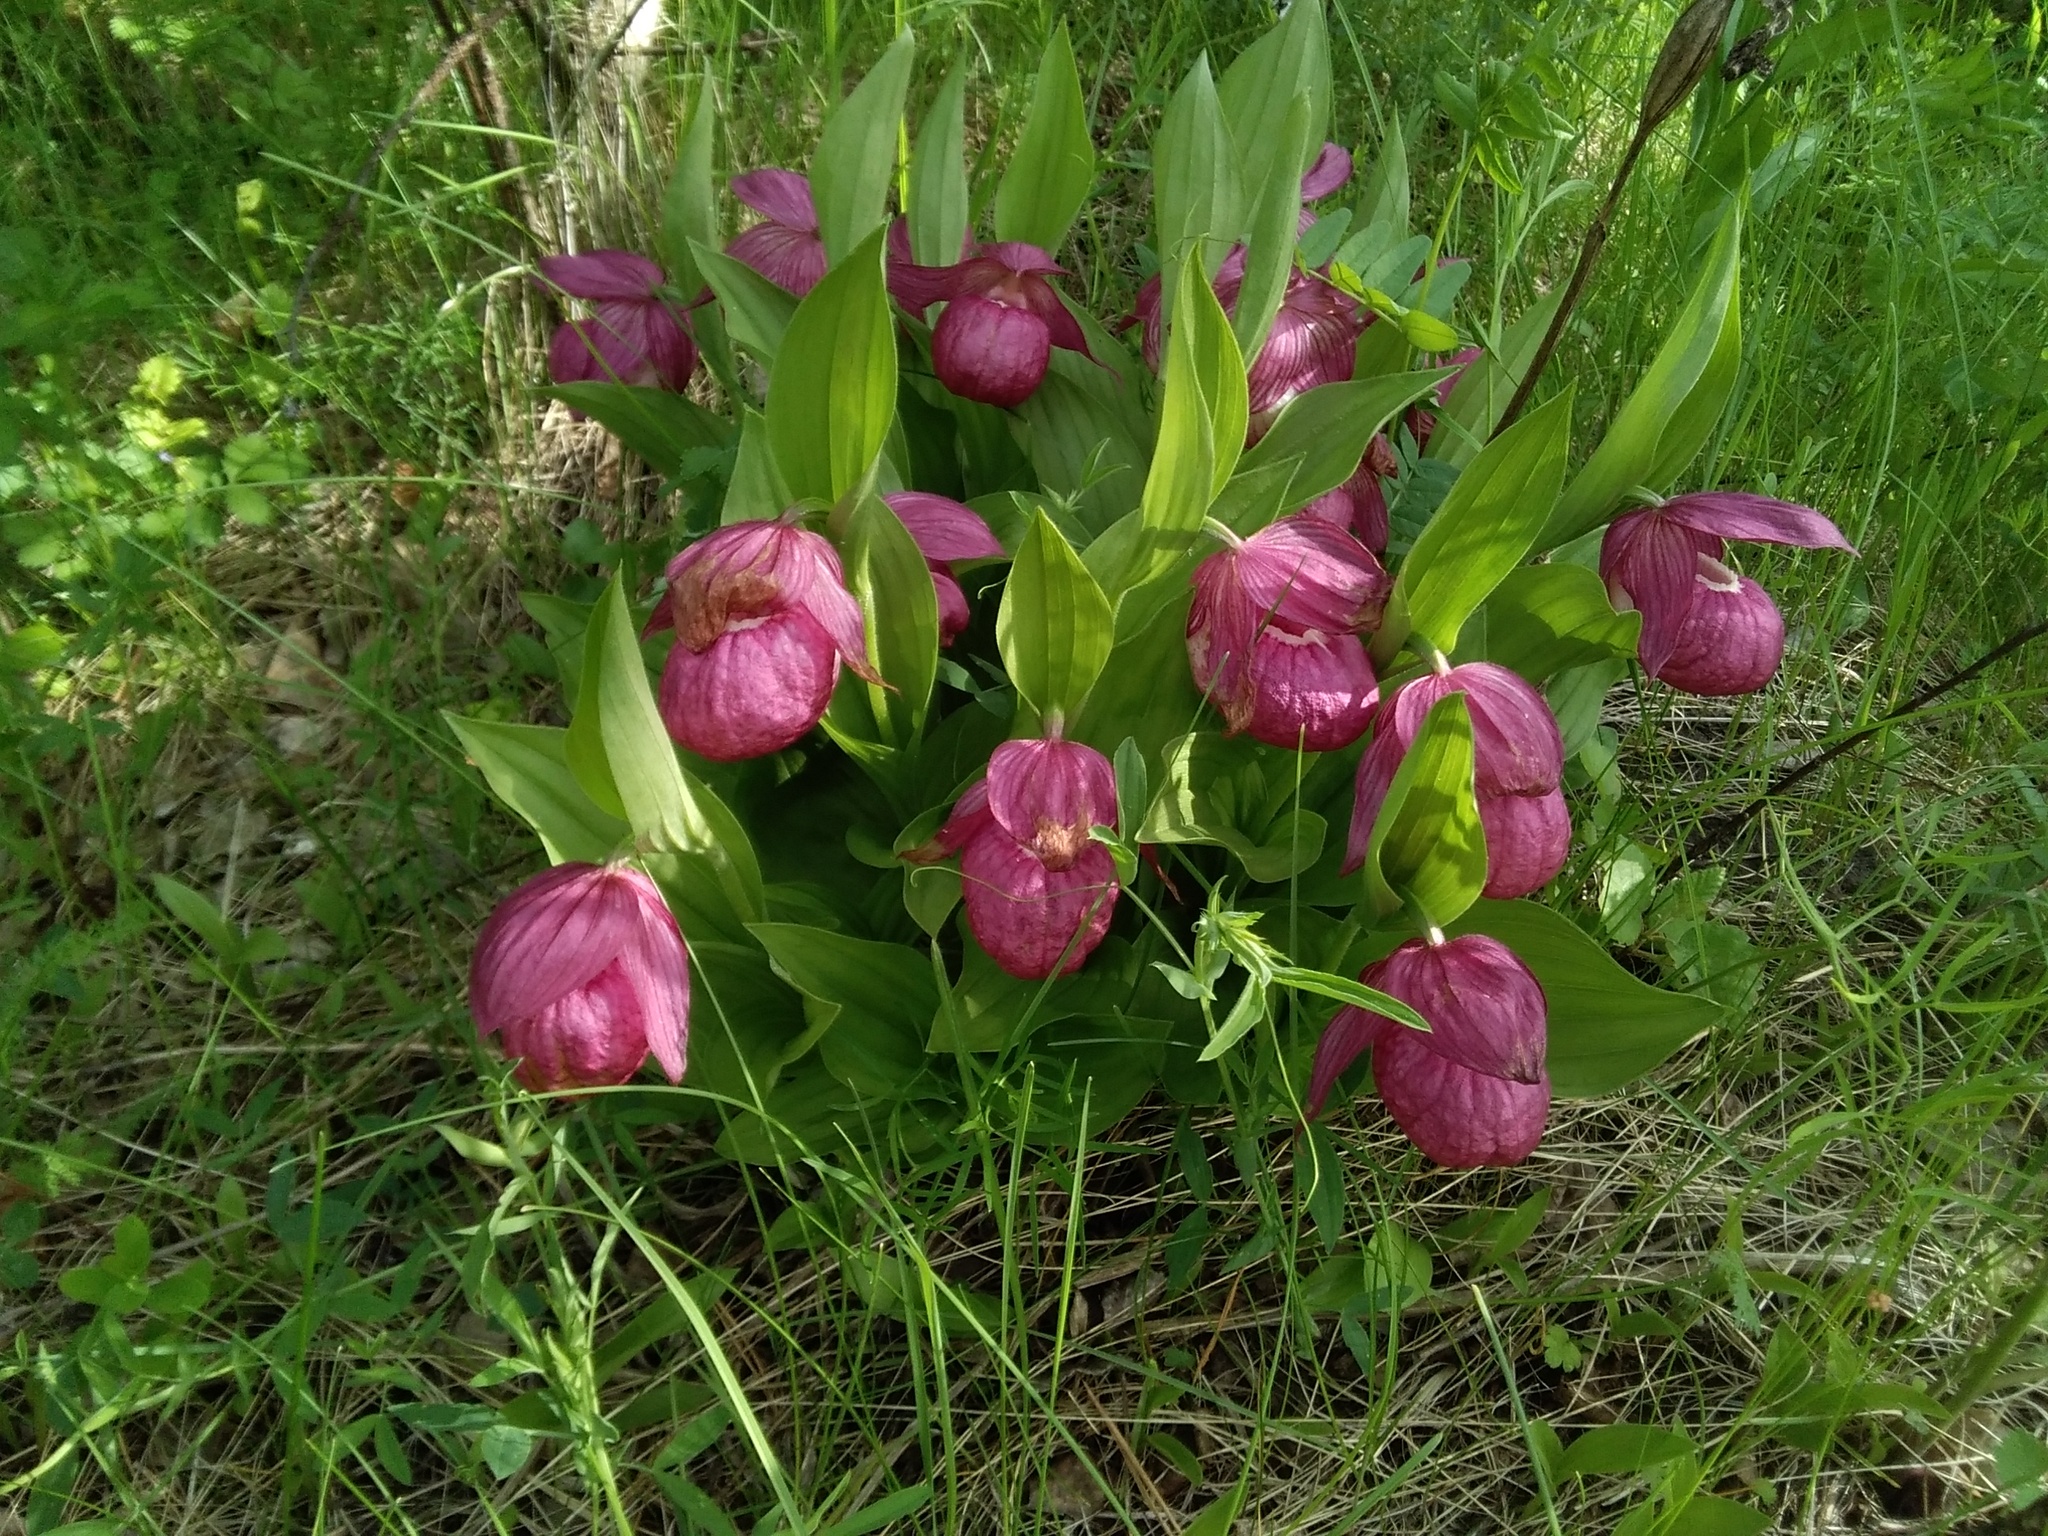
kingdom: Plantae
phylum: Tracheophyta
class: Liliopsida
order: Asparagales
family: Orchidaceae
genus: Cypripedium
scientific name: Cypripedium macranthos
